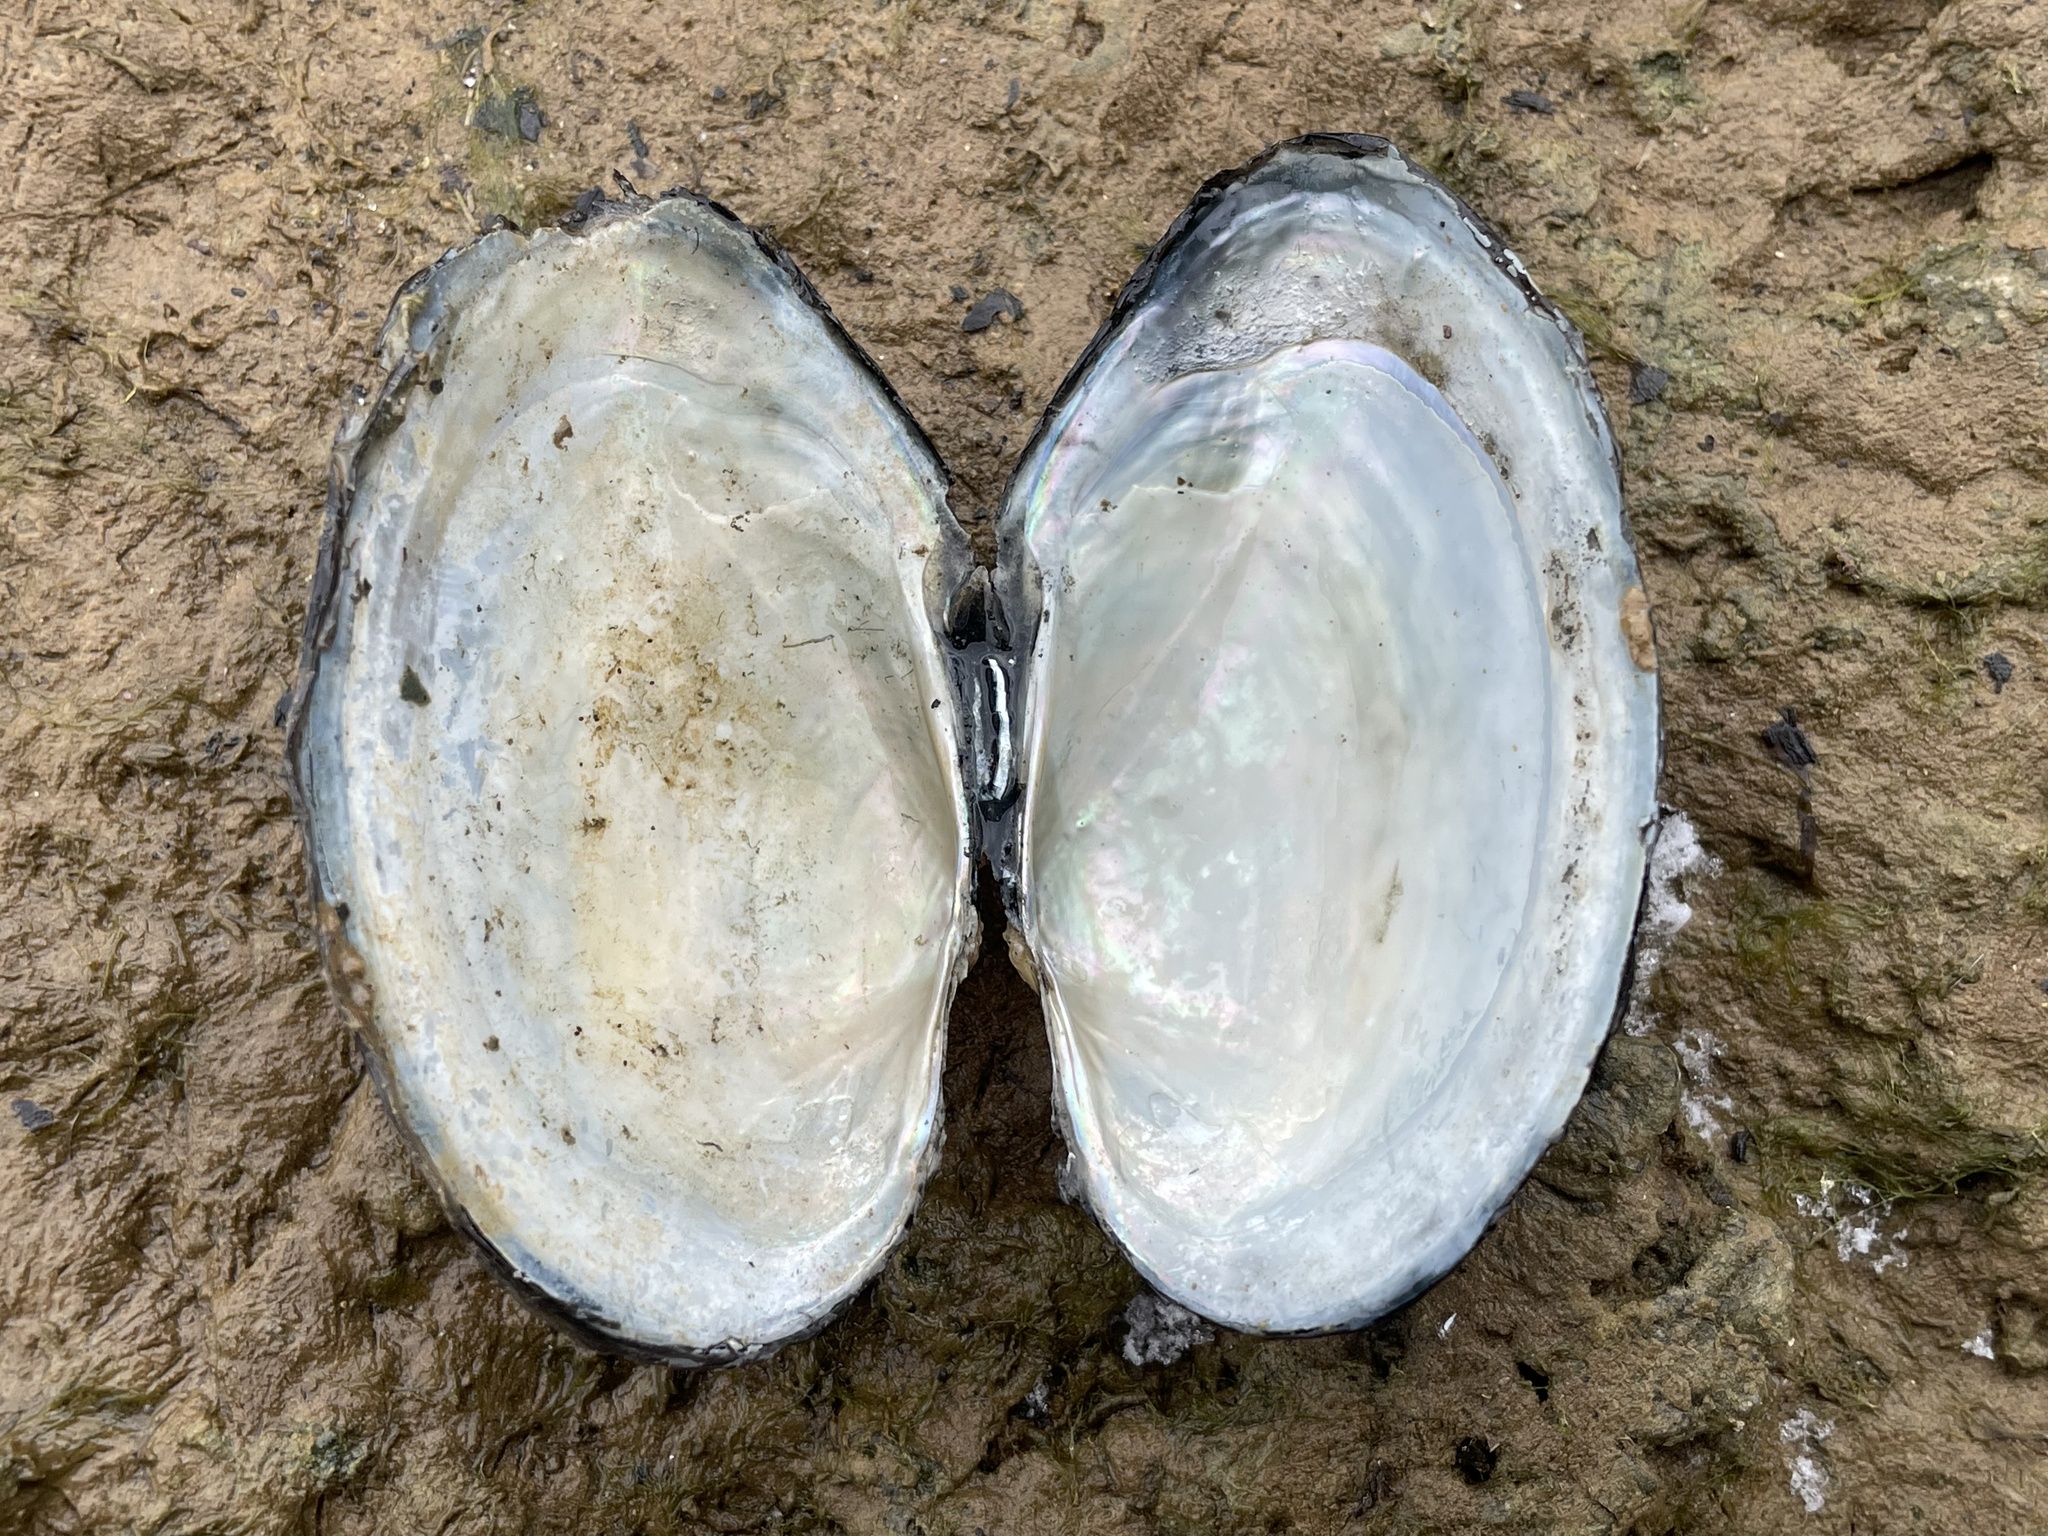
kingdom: Animalia
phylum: Mollusca
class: Bivalvia
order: Unionida
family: Unionidae
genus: Pyganodon
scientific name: Pyganodon grandis
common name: Giant floater
